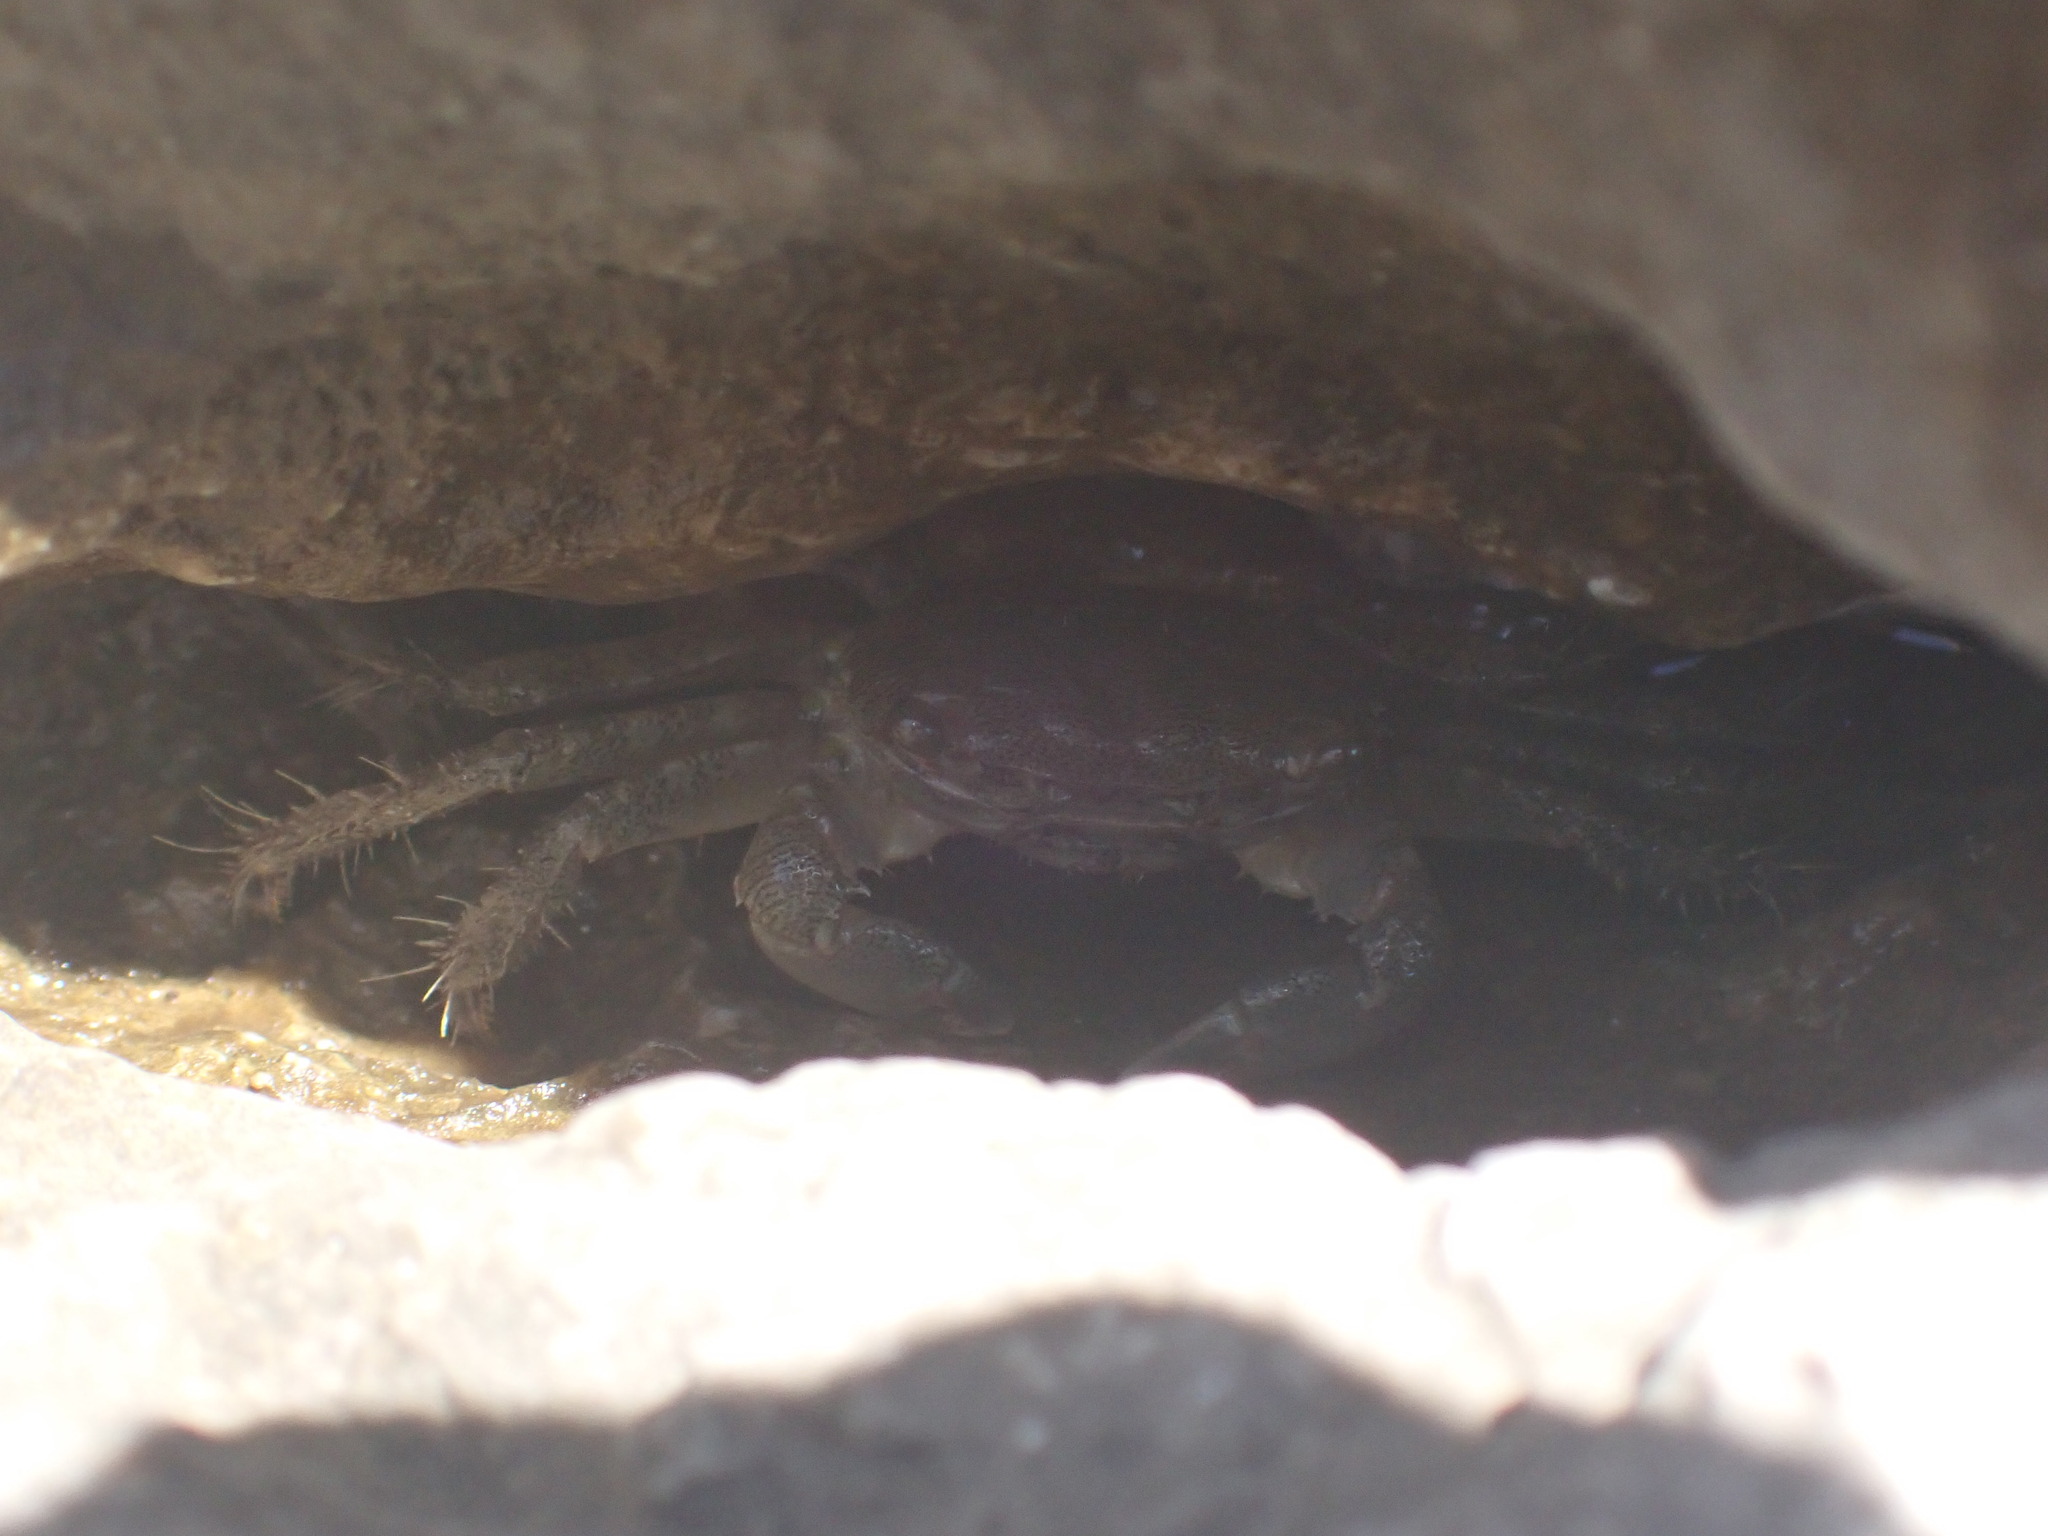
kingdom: Animalia
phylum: Arthropoda
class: Malacostraca
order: Decapoda
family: Grapsidae
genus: Pachygrapsus
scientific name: Pachygrapsus marmoratus
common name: Marbled rock crab
